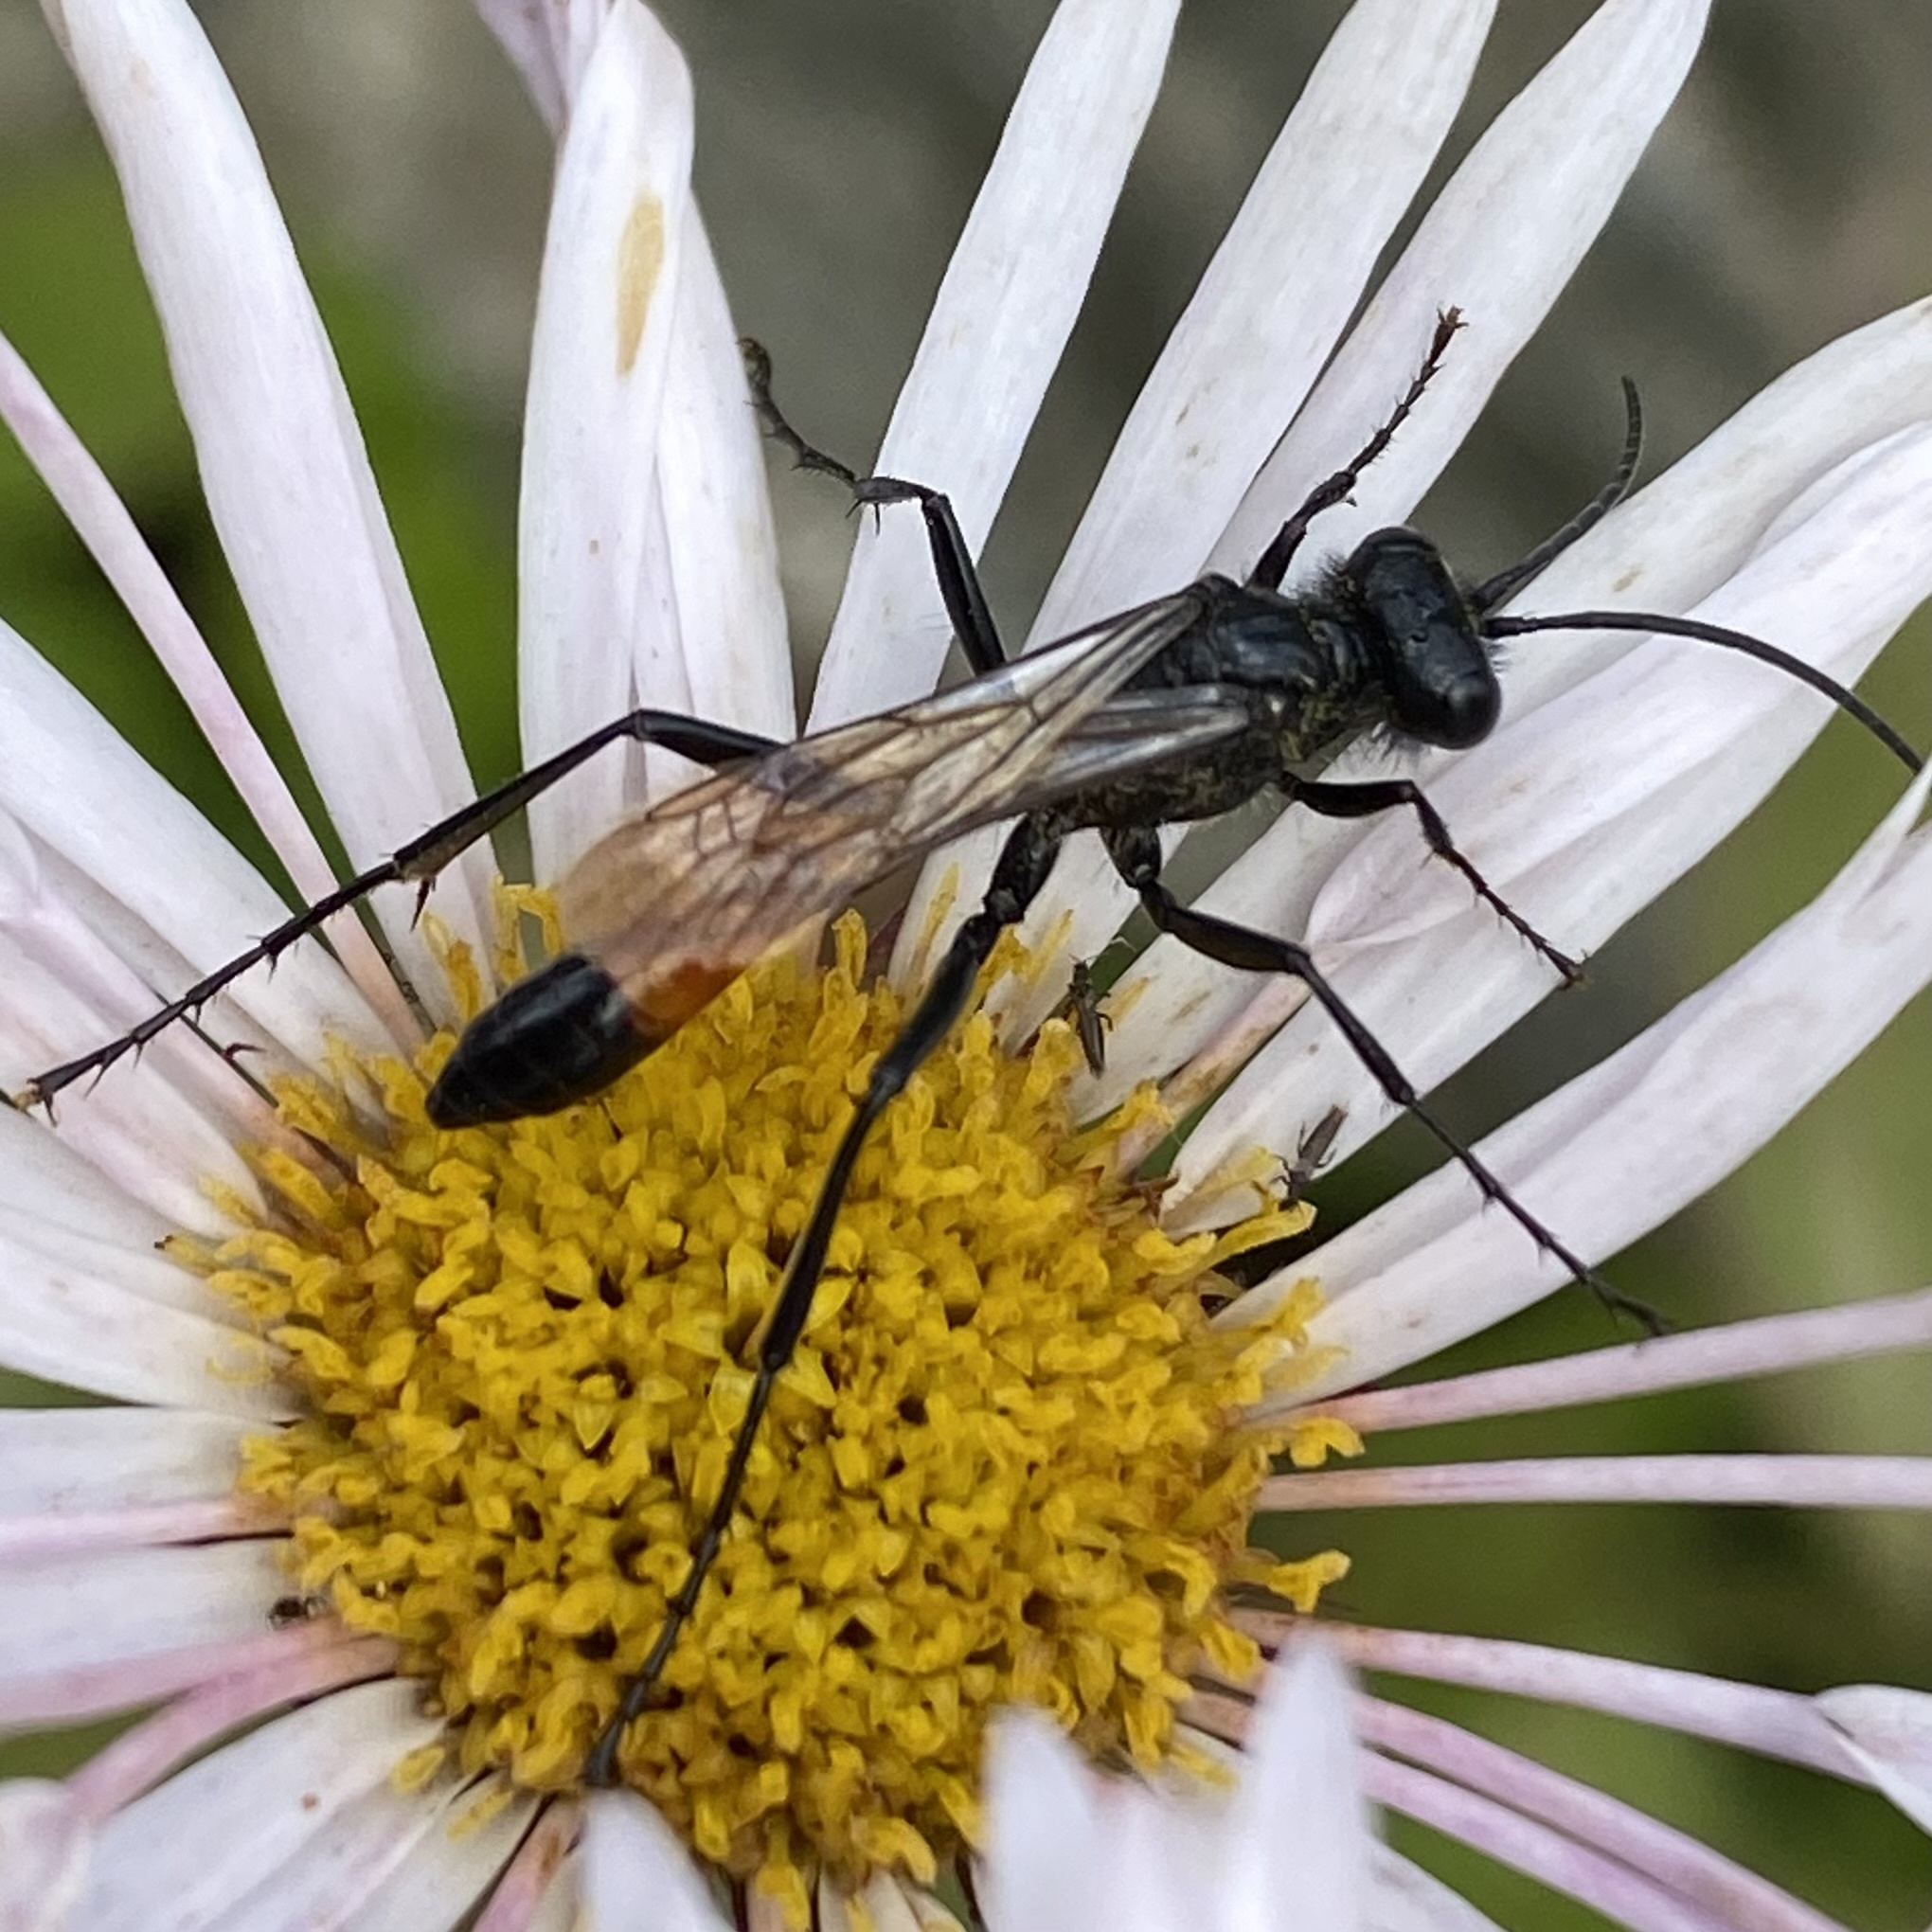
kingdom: Animalia
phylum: Arthropoda
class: Insecta
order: Hymenoptera
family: Sphecidae
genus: Podalonia
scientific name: Podalonia
